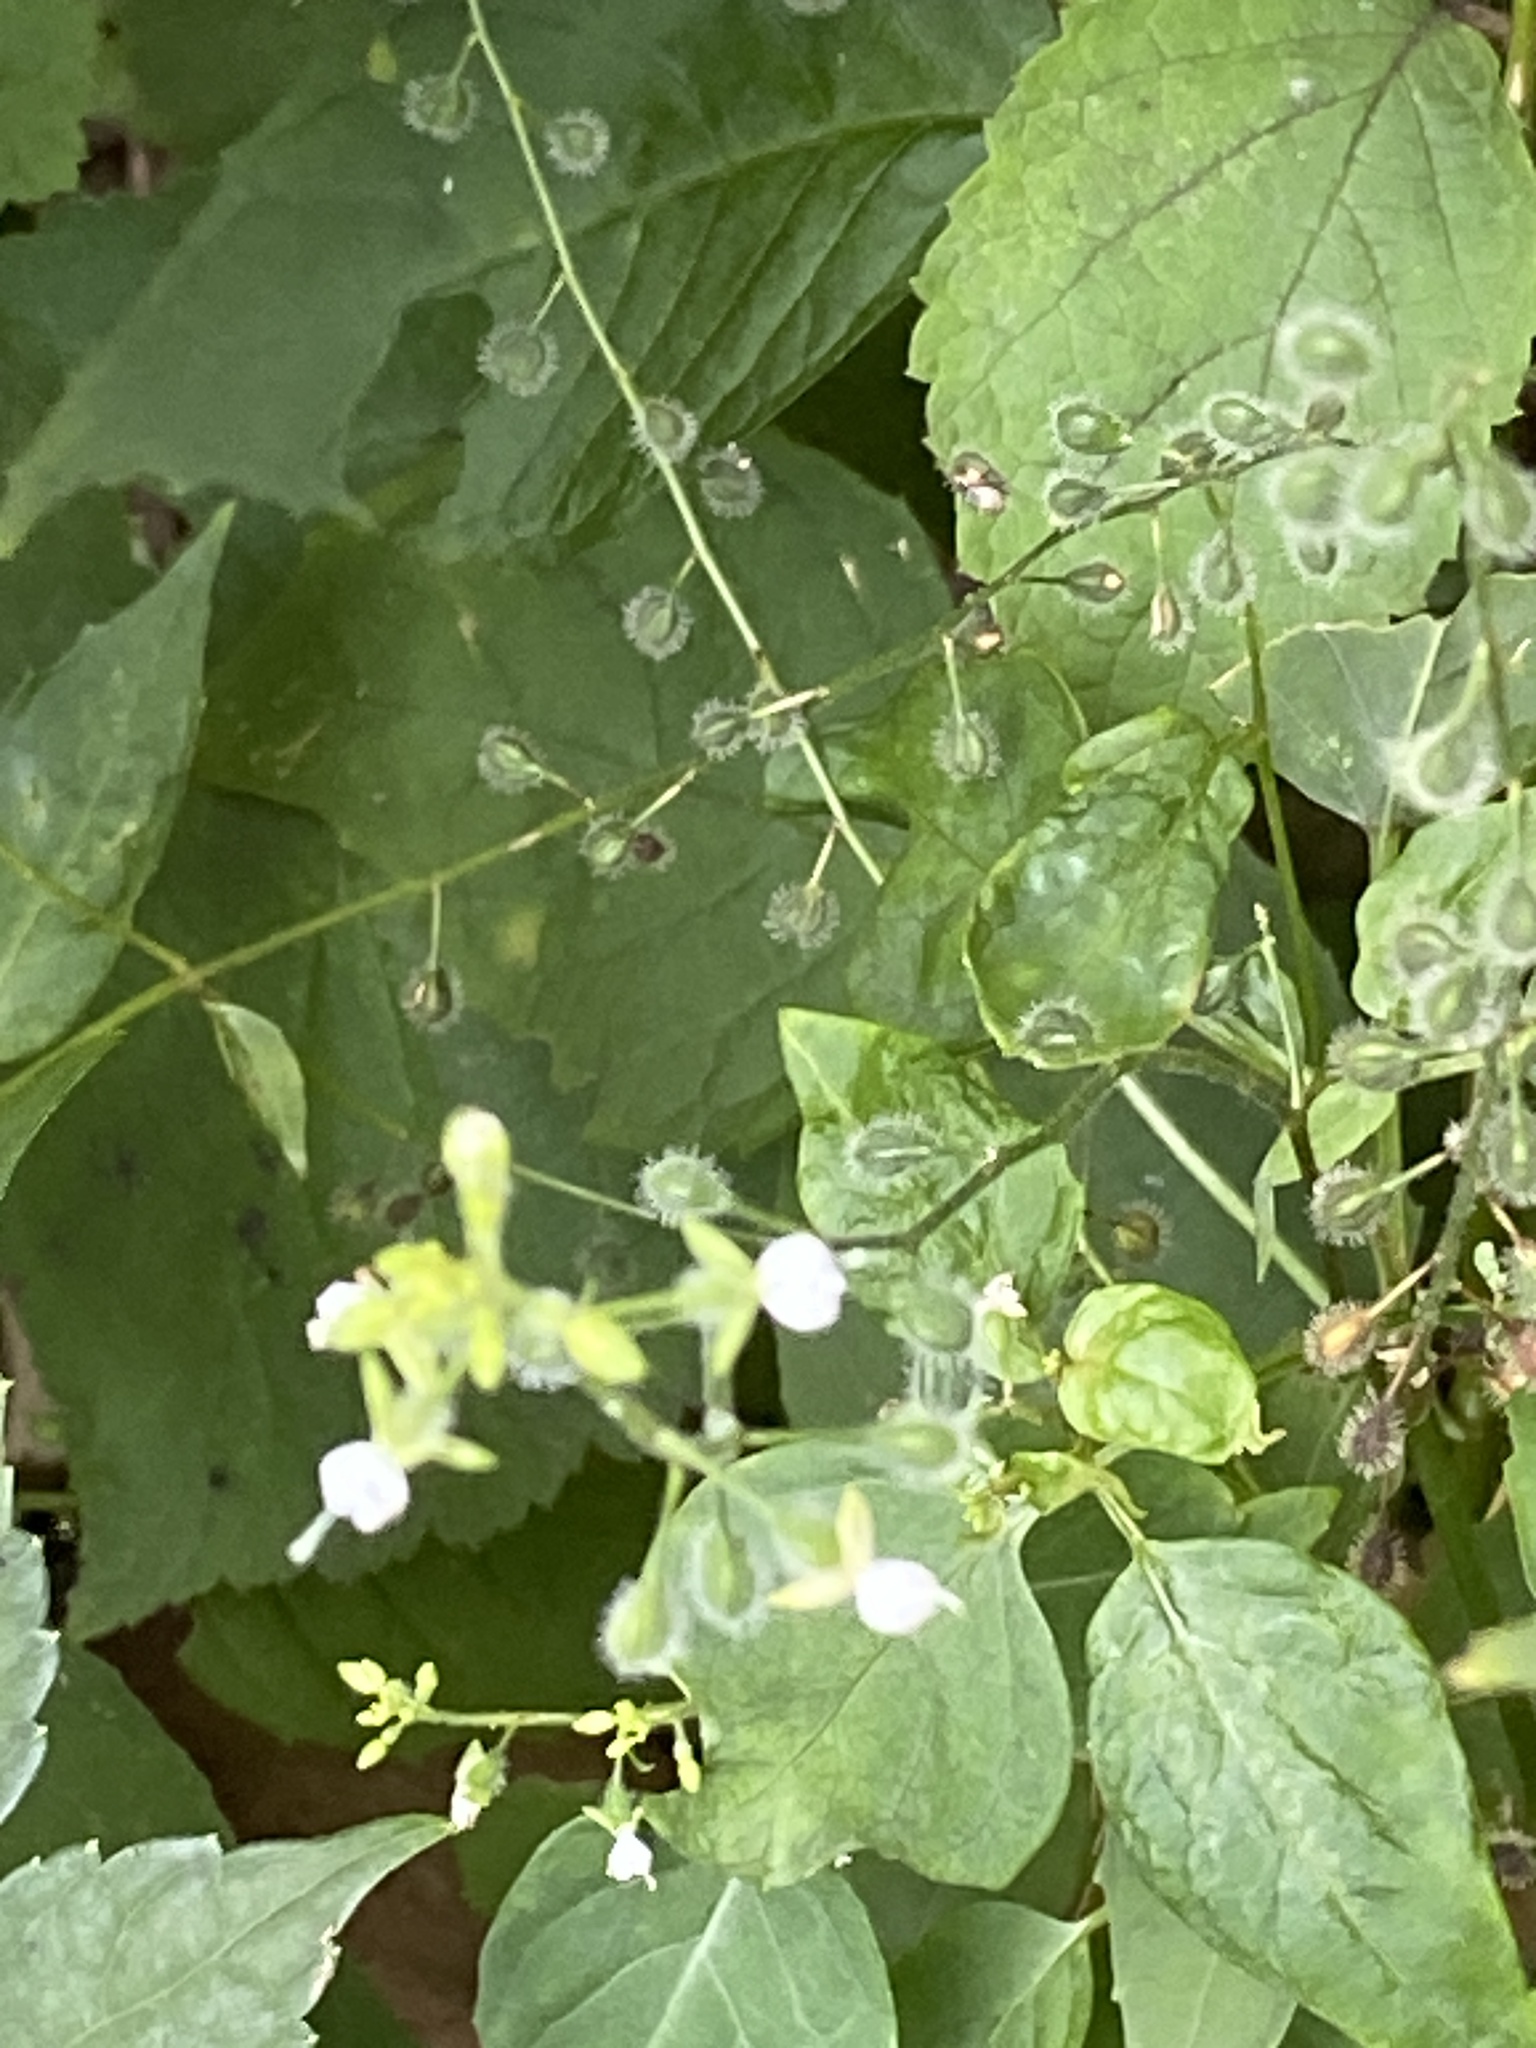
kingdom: Plantae
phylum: Tracheophyta
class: Magnoliopsida
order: Myrtales
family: Onagraceae
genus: Circaea
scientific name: Circaea canadensis
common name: Broad-leaved enchanter's nightshade
